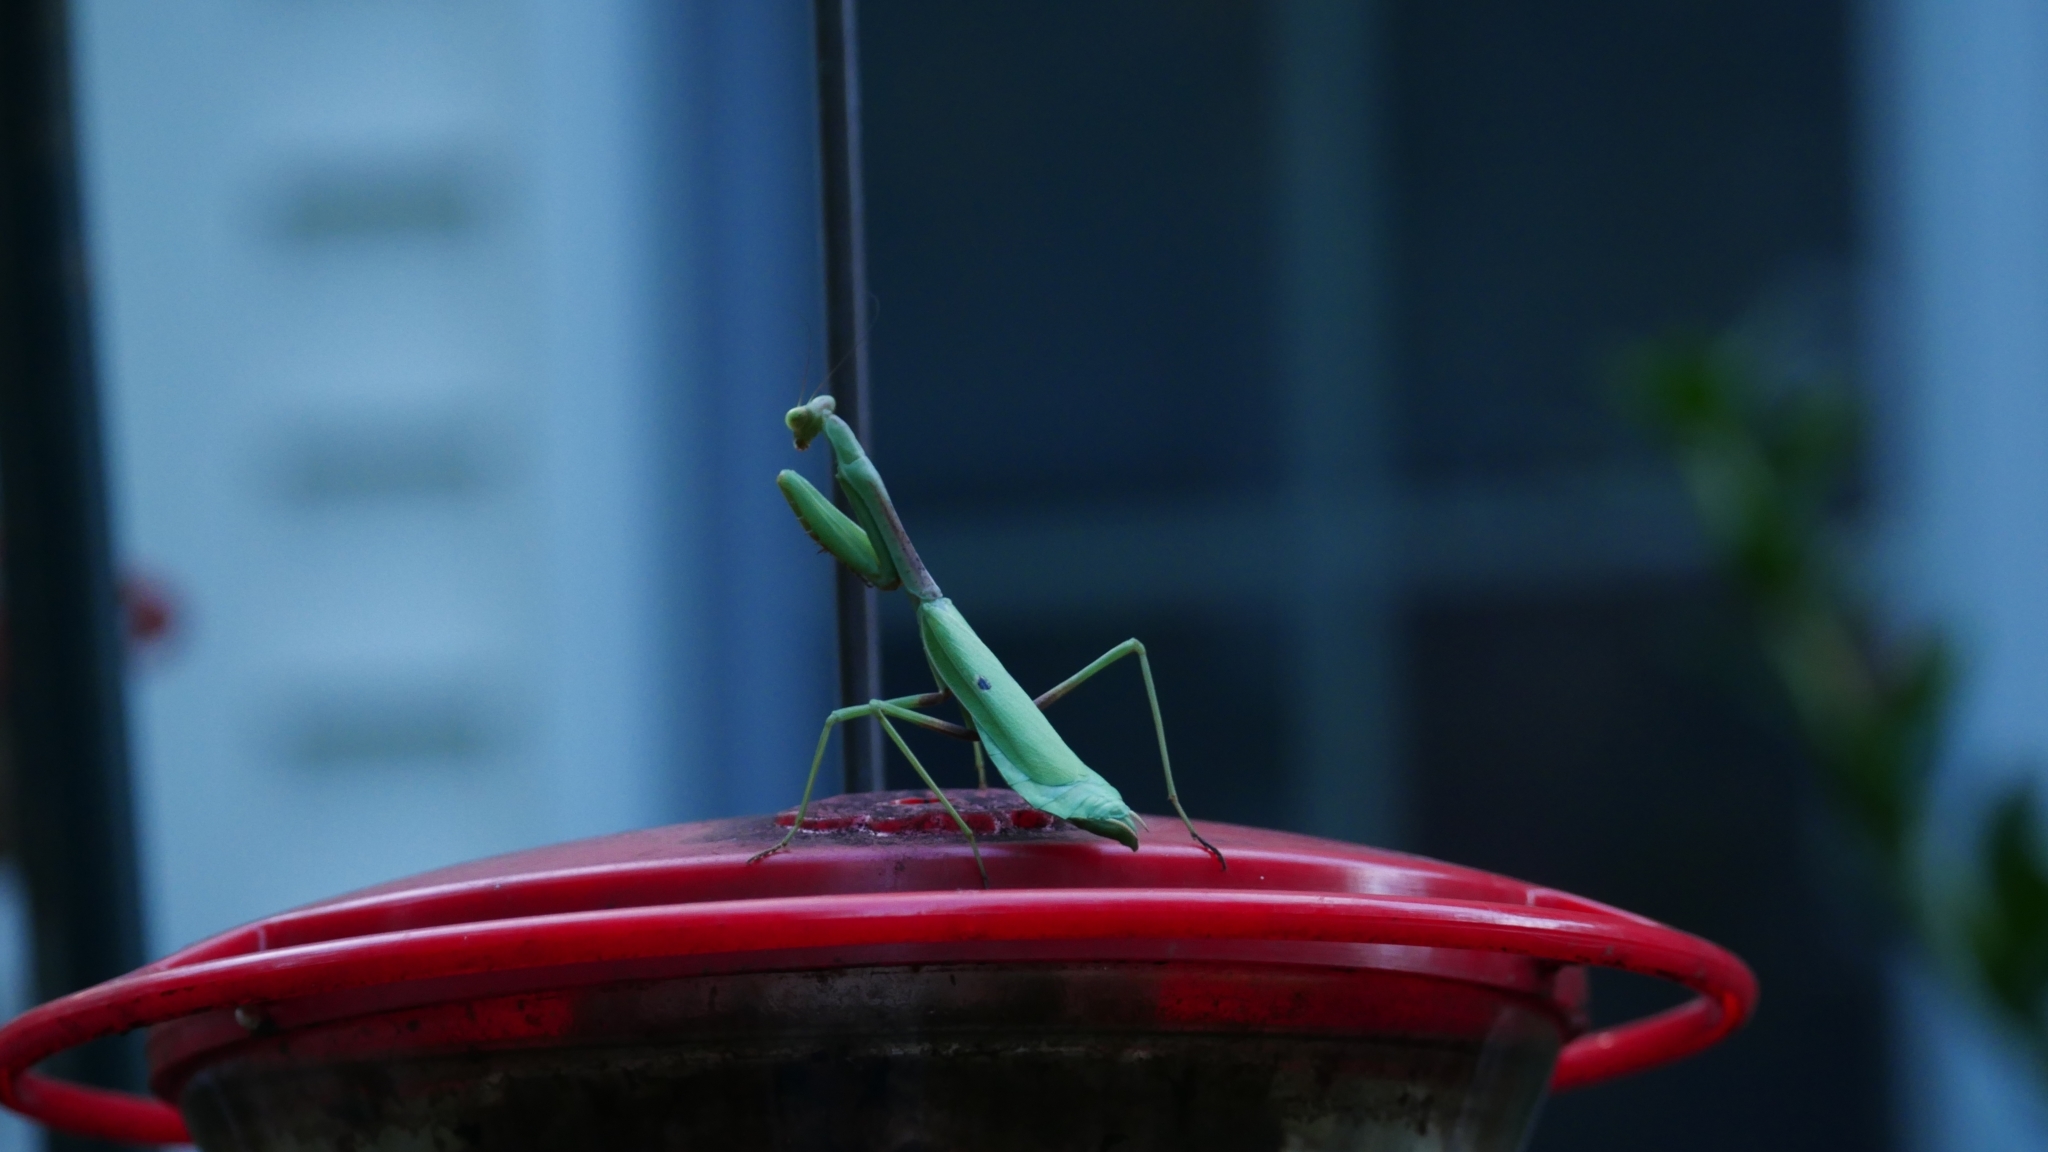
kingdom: Animalia
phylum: Arthropoda
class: Insecta
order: Mantodea
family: Mantidae
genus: Stagmomantis
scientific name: Stagmomantis carolina
